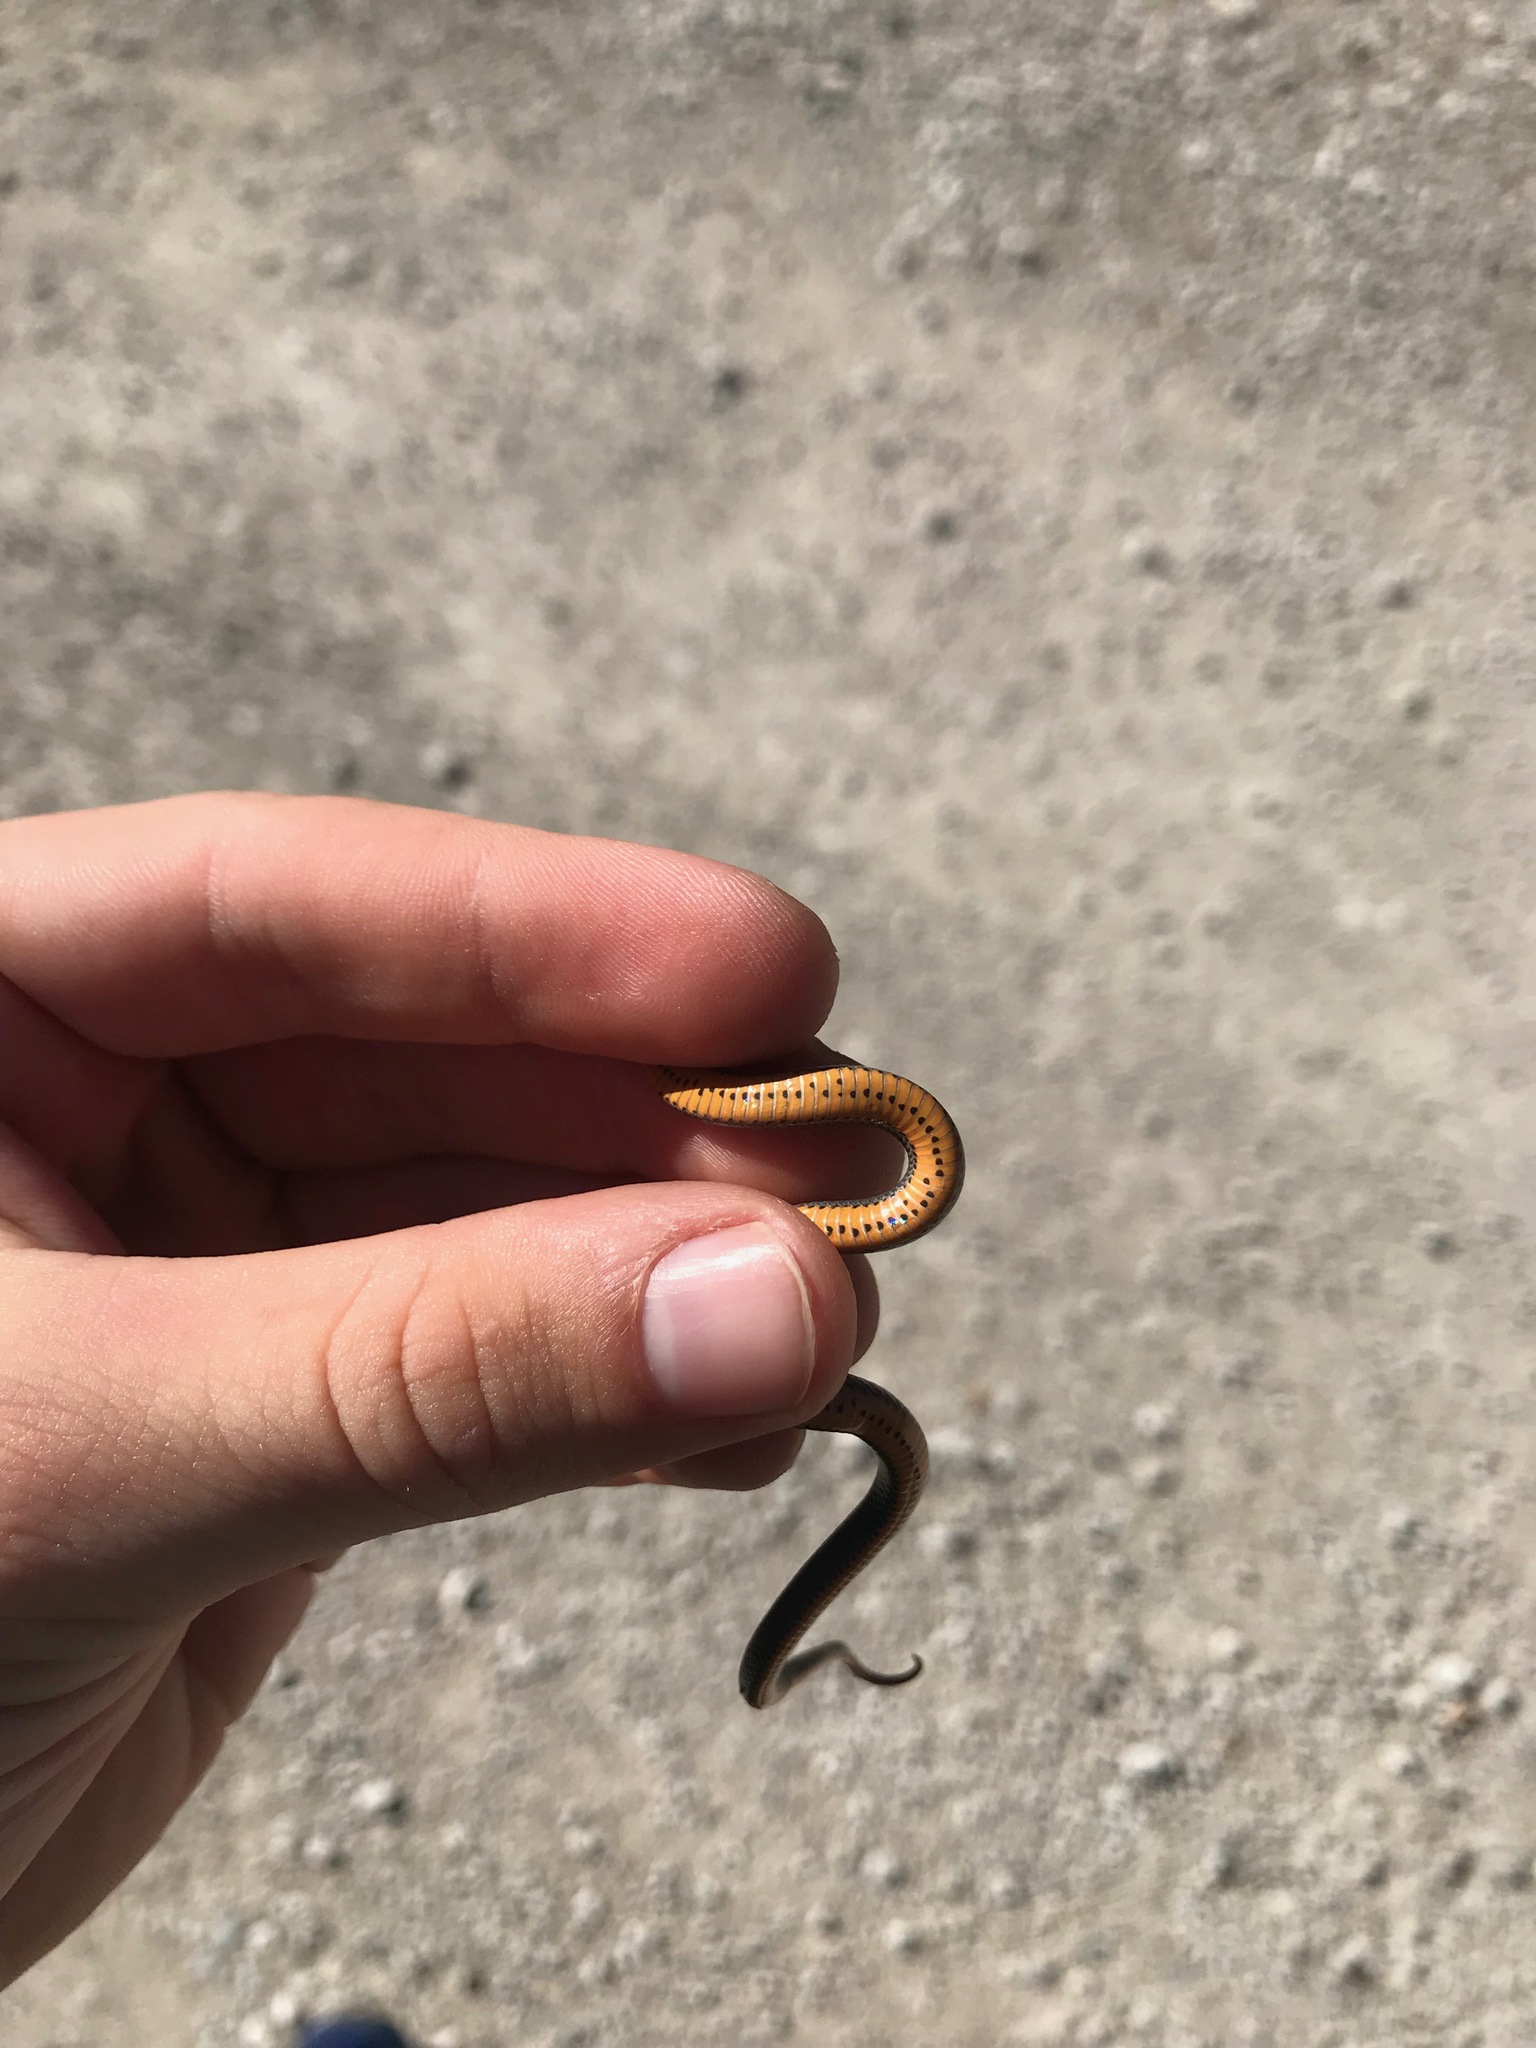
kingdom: Animalia
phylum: Chordata
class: Squamata
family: Colubridae
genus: Diadophis
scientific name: Diadophis punctatus
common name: Ringneck snake
